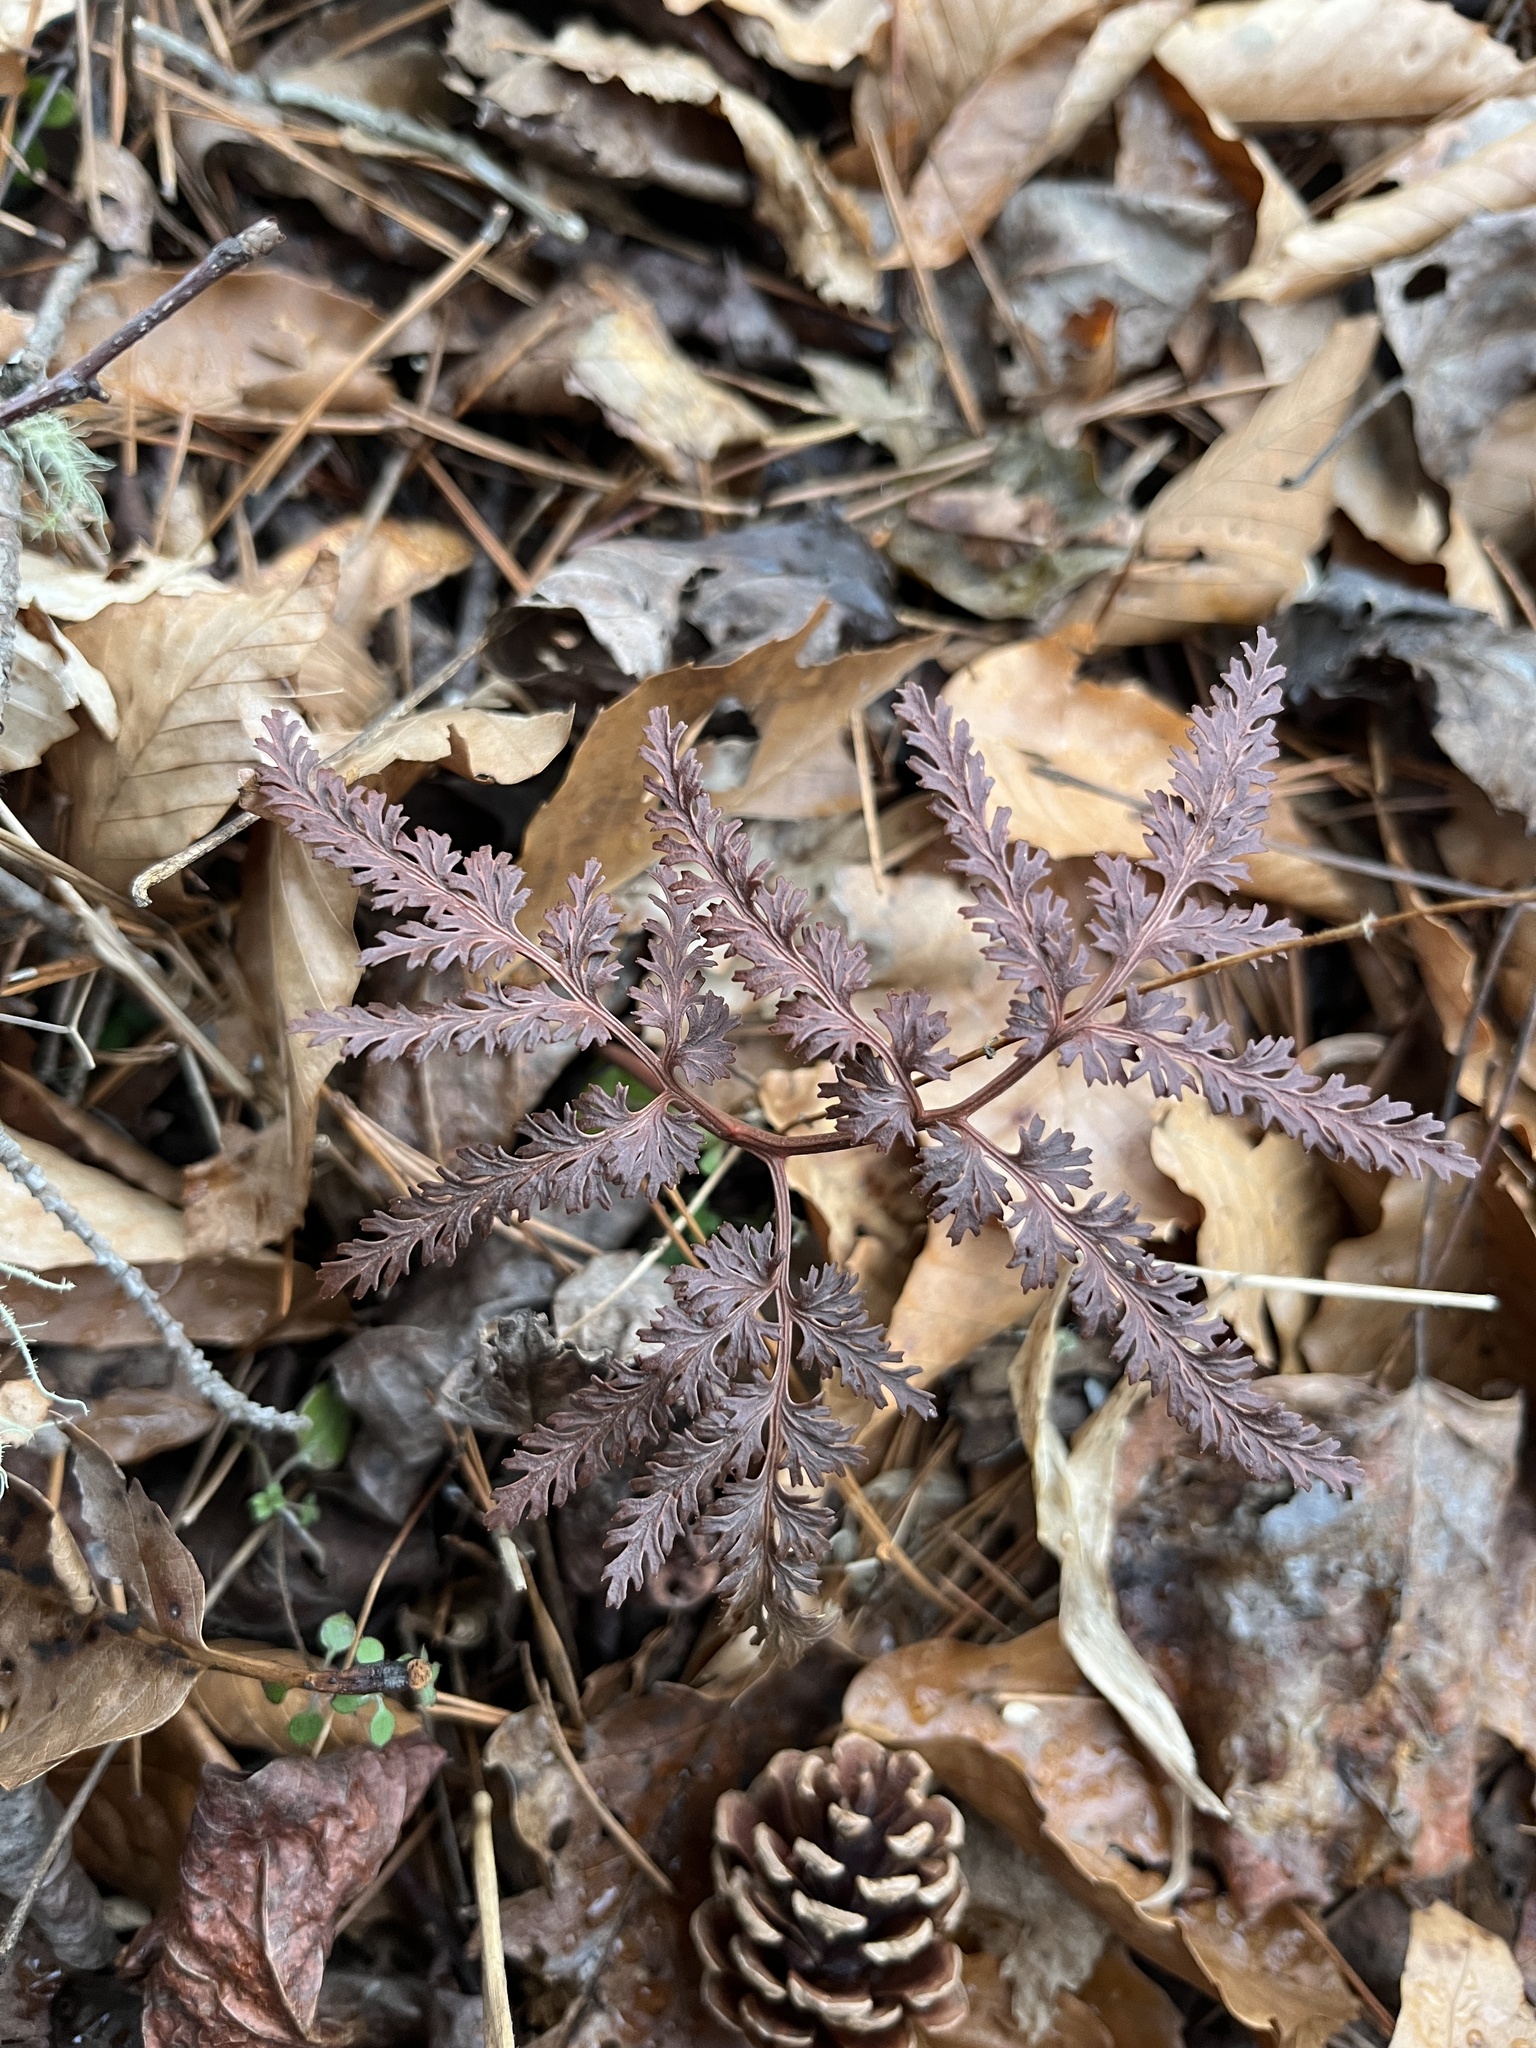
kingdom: Plantae
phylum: Tracheophyta
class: Polypodiopsida
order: Ophioglossales
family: Ophioglossaceae
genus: Sceptridium
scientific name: Sceptridium dissectum
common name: Cut-leaved grapefern
